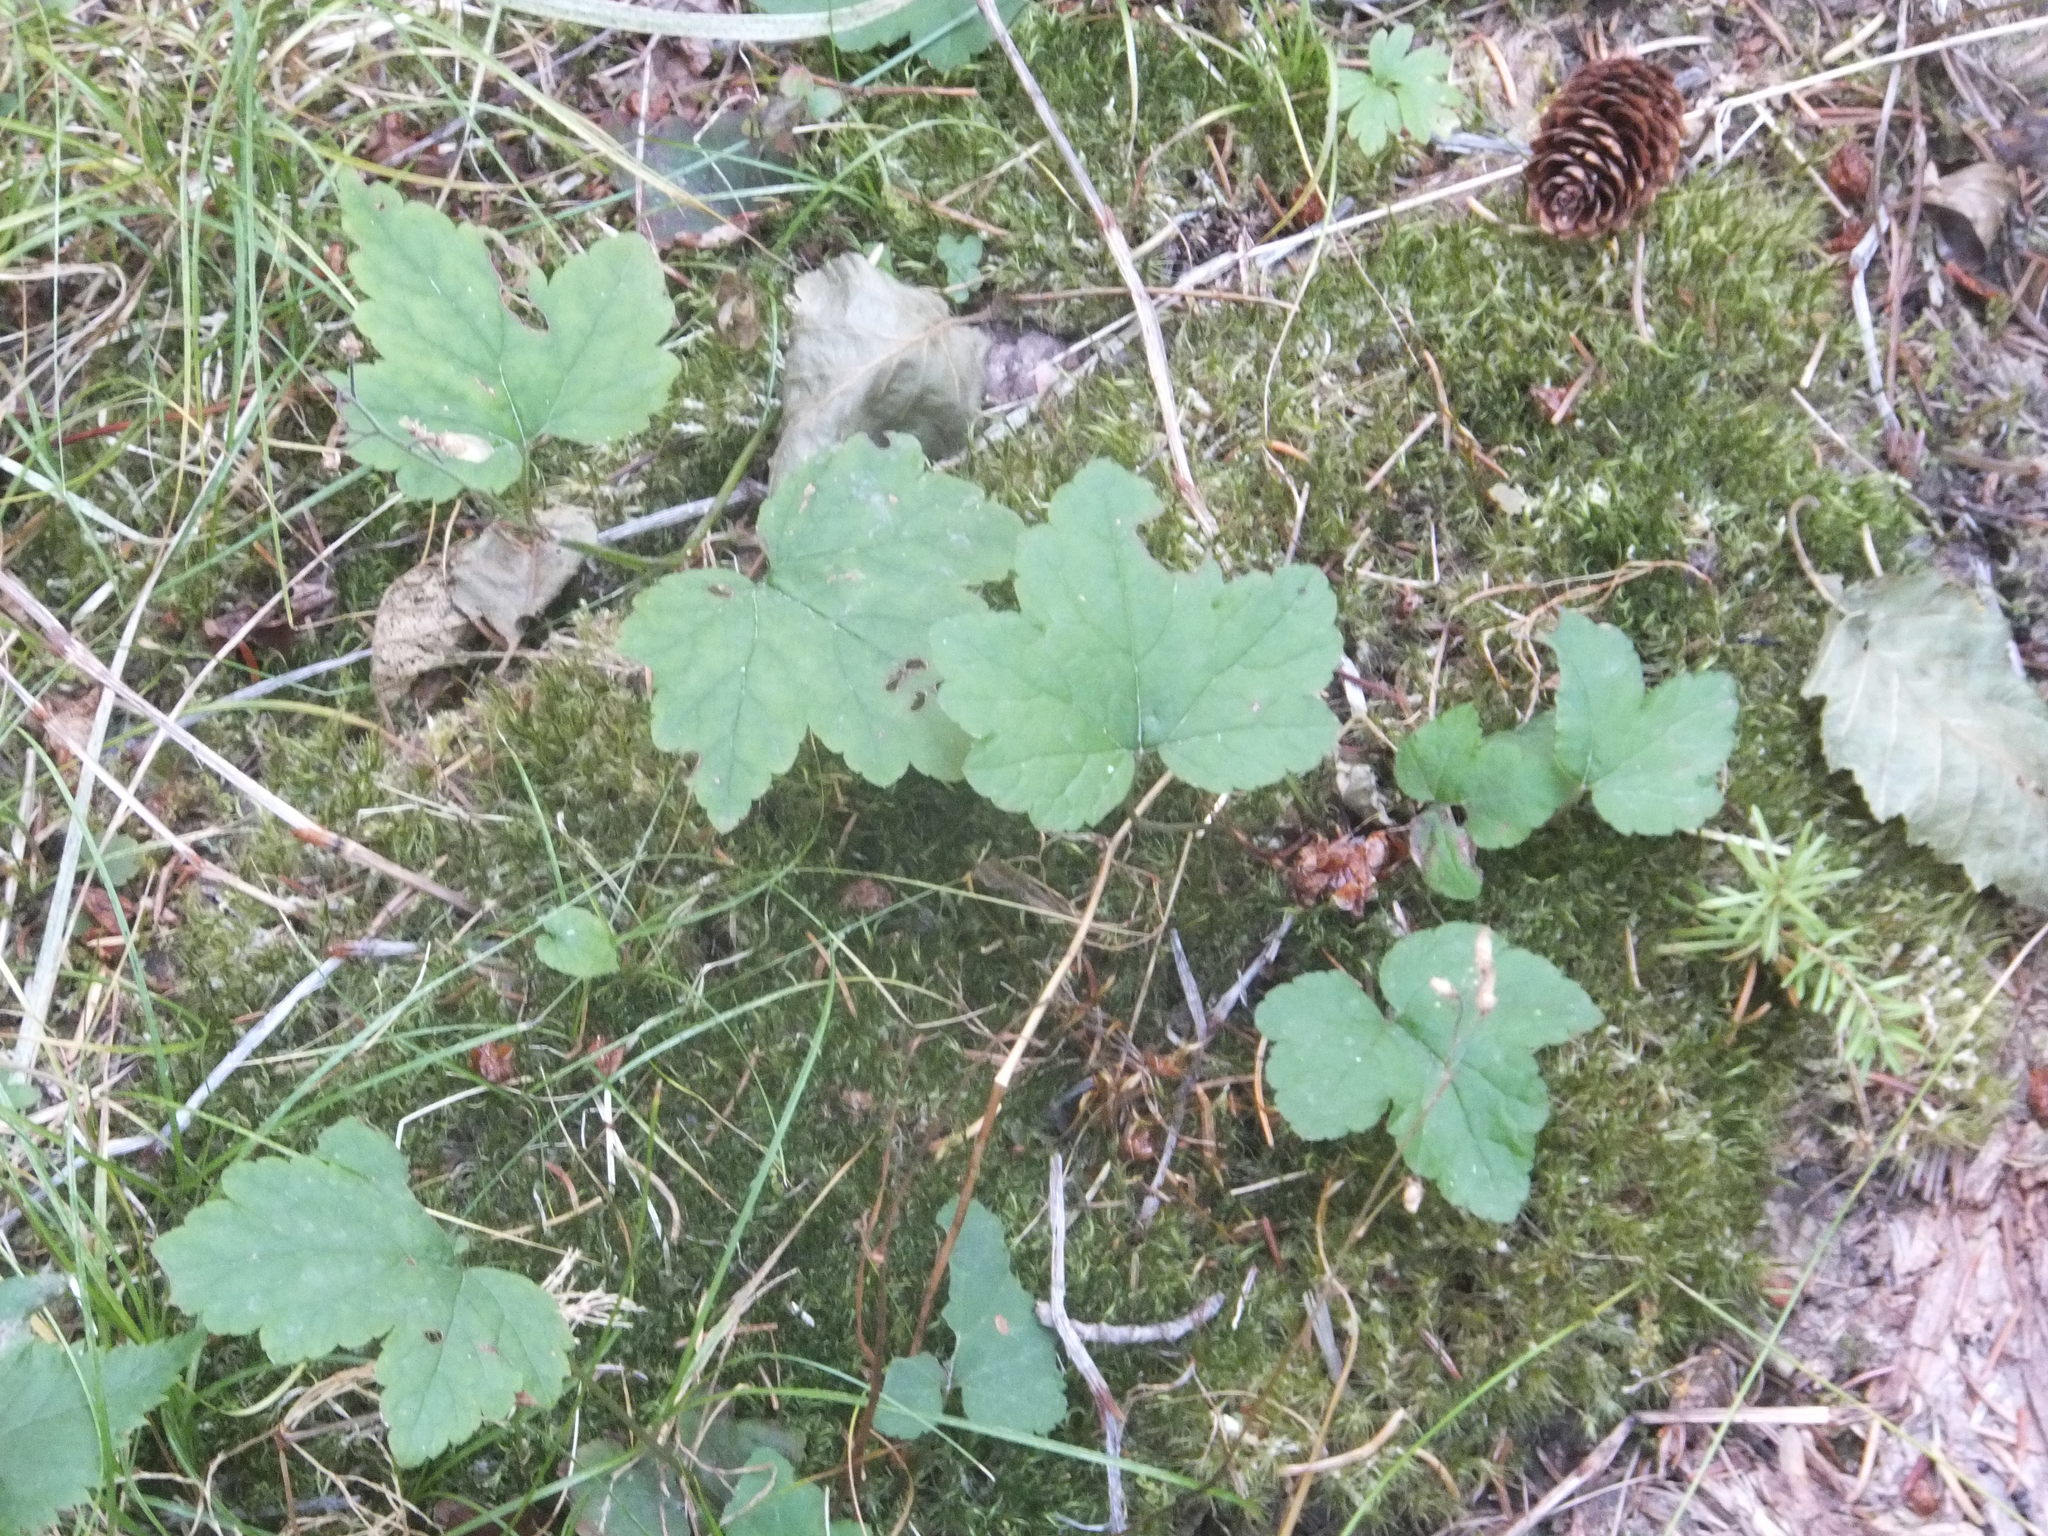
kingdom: Plantae
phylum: Tracheophyta
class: Magnoliopsida
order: Saxifragales
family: Saxifragaceae
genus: Tiarella
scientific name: Tiarella trifoliata
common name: Sugar-scoop
